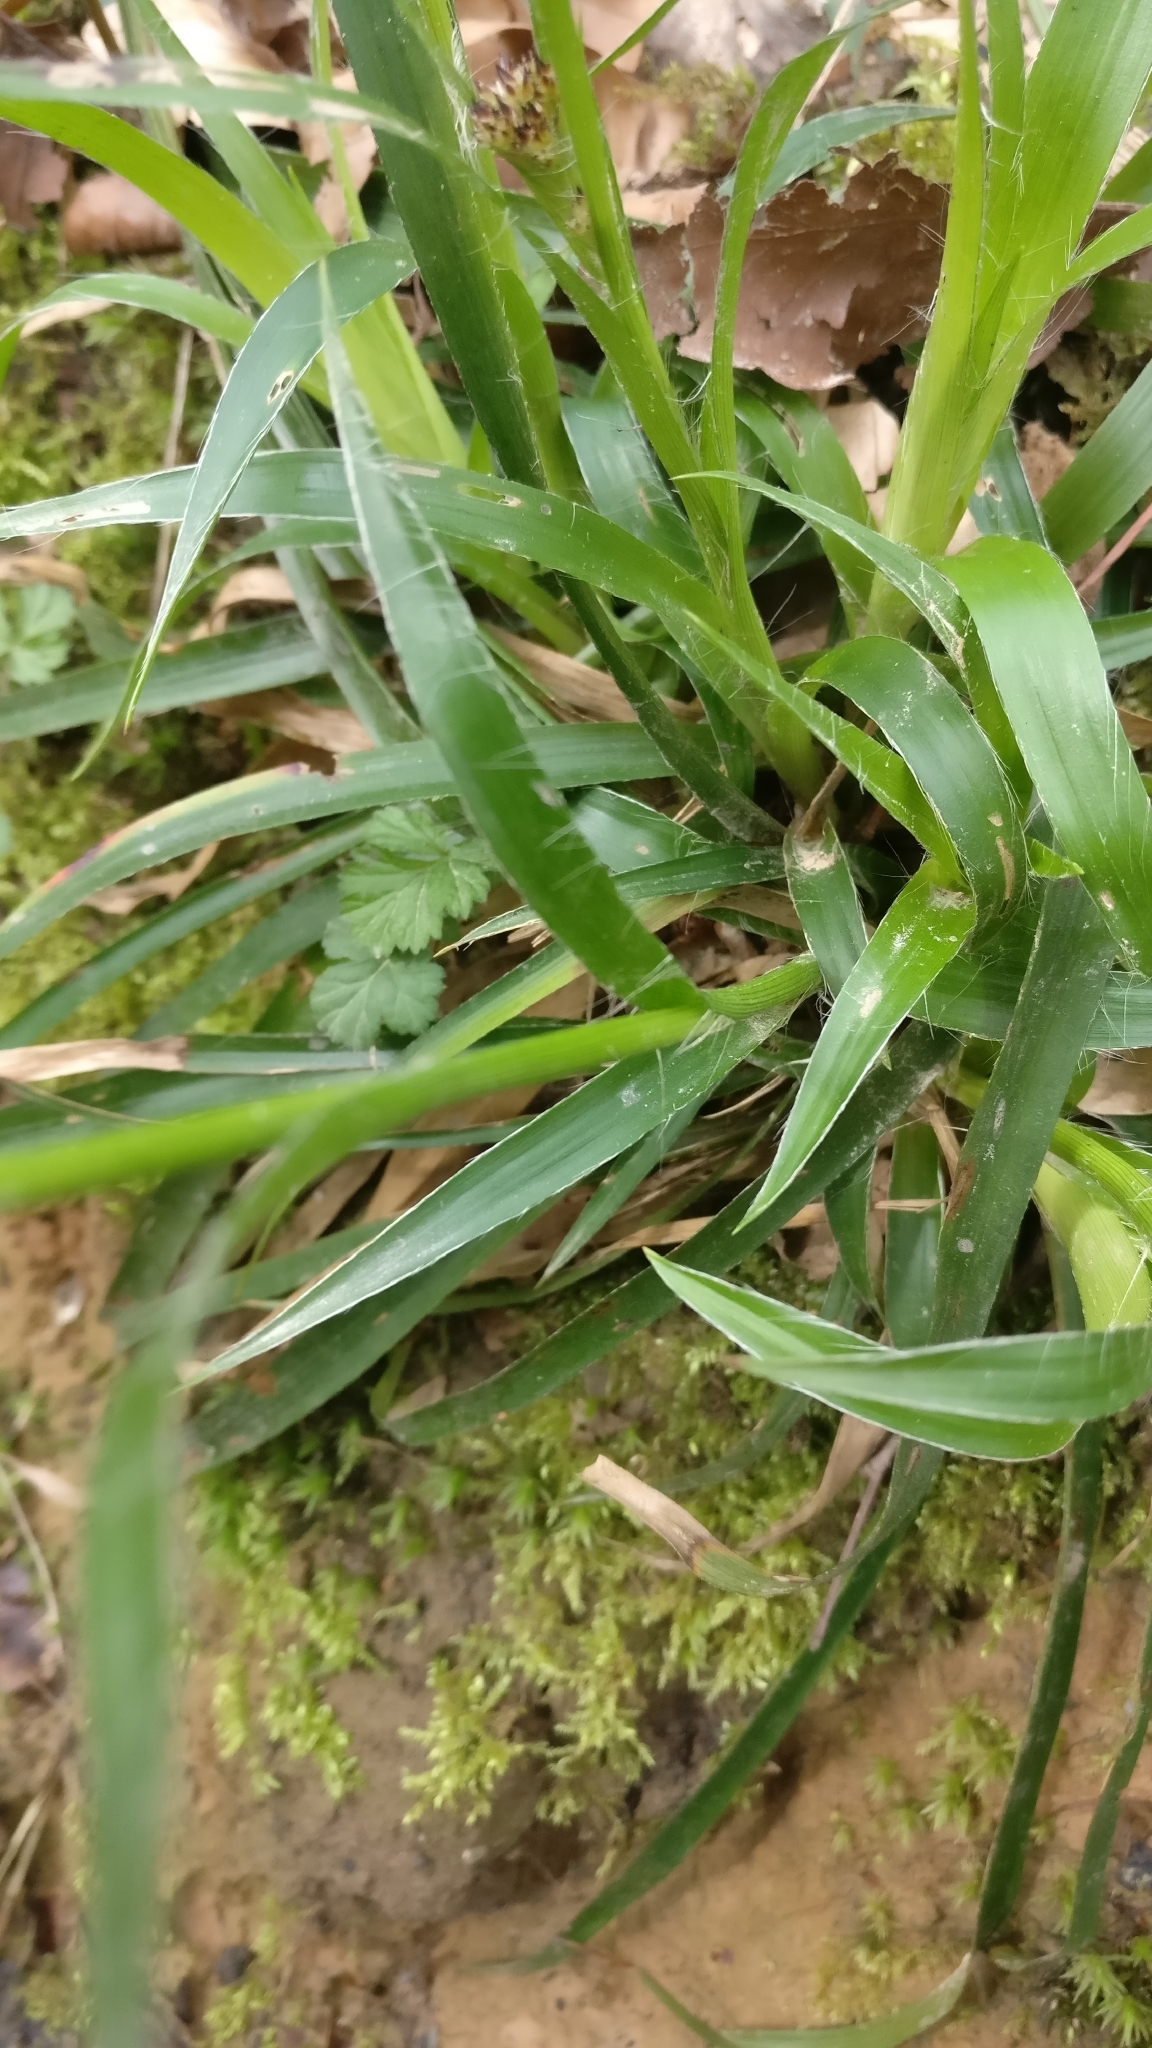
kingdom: Plantae
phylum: Tracheophyta
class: Liliopsida
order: Poales
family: Juncaceae
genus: Luzula
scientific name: Luzula sylvatica
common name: Great wood-rush
